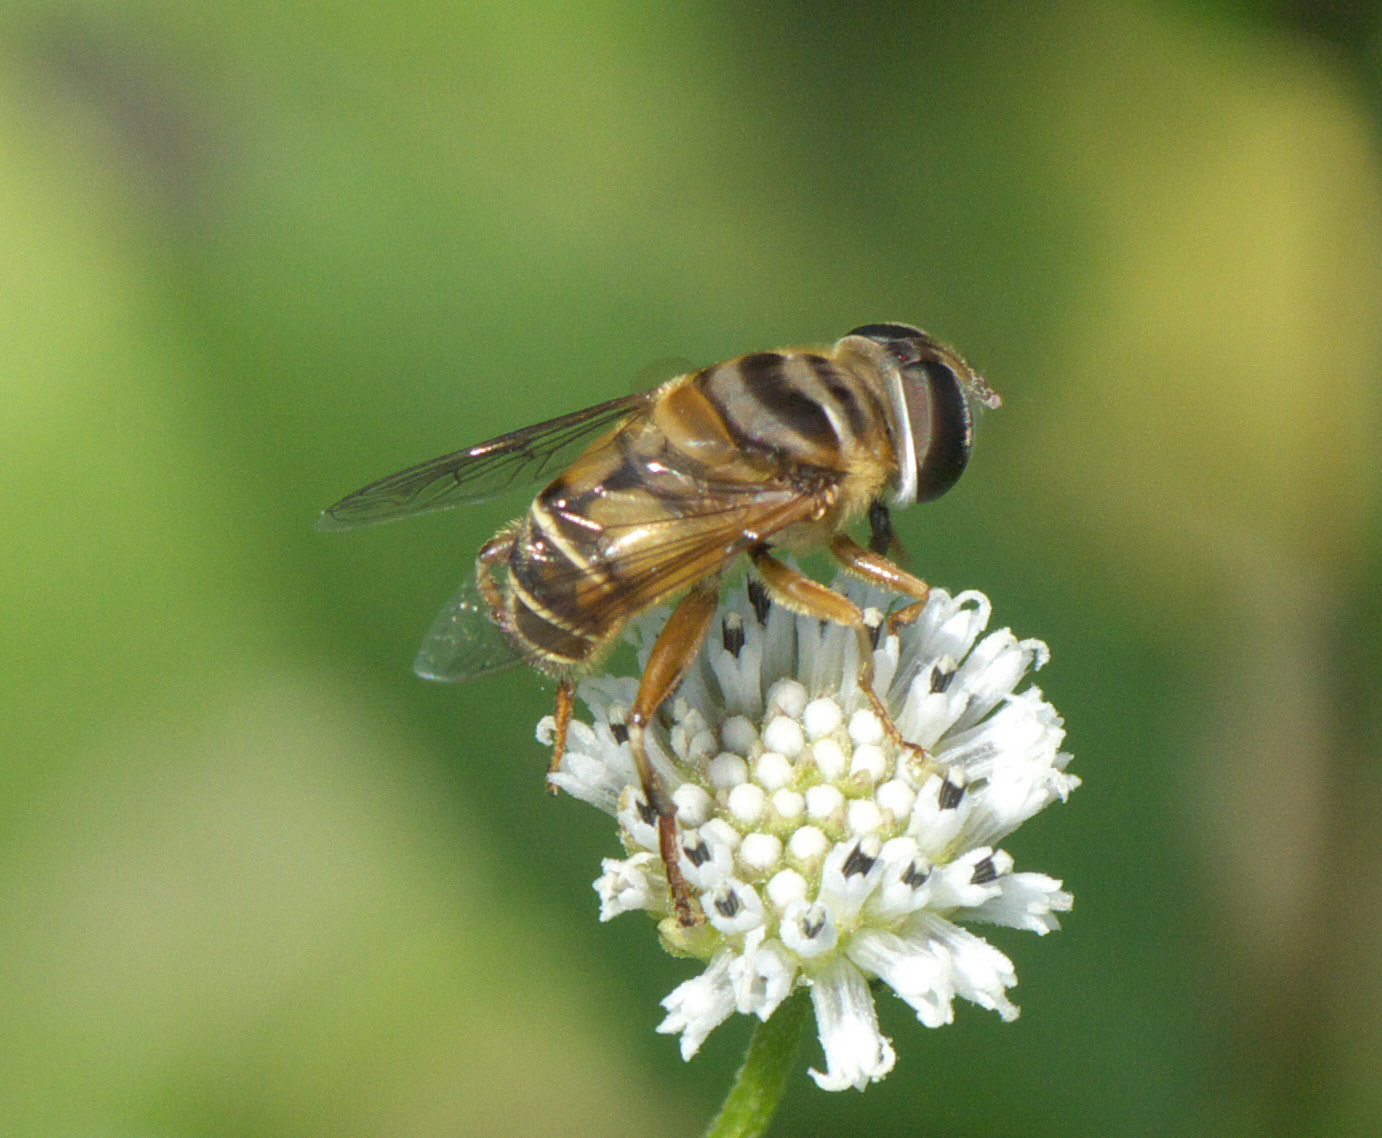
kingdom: Animalia
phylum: Arthropoda
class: Insecta
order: Diptera
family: Syrphidae
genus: Palpada
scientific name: Palpada vinetorum
